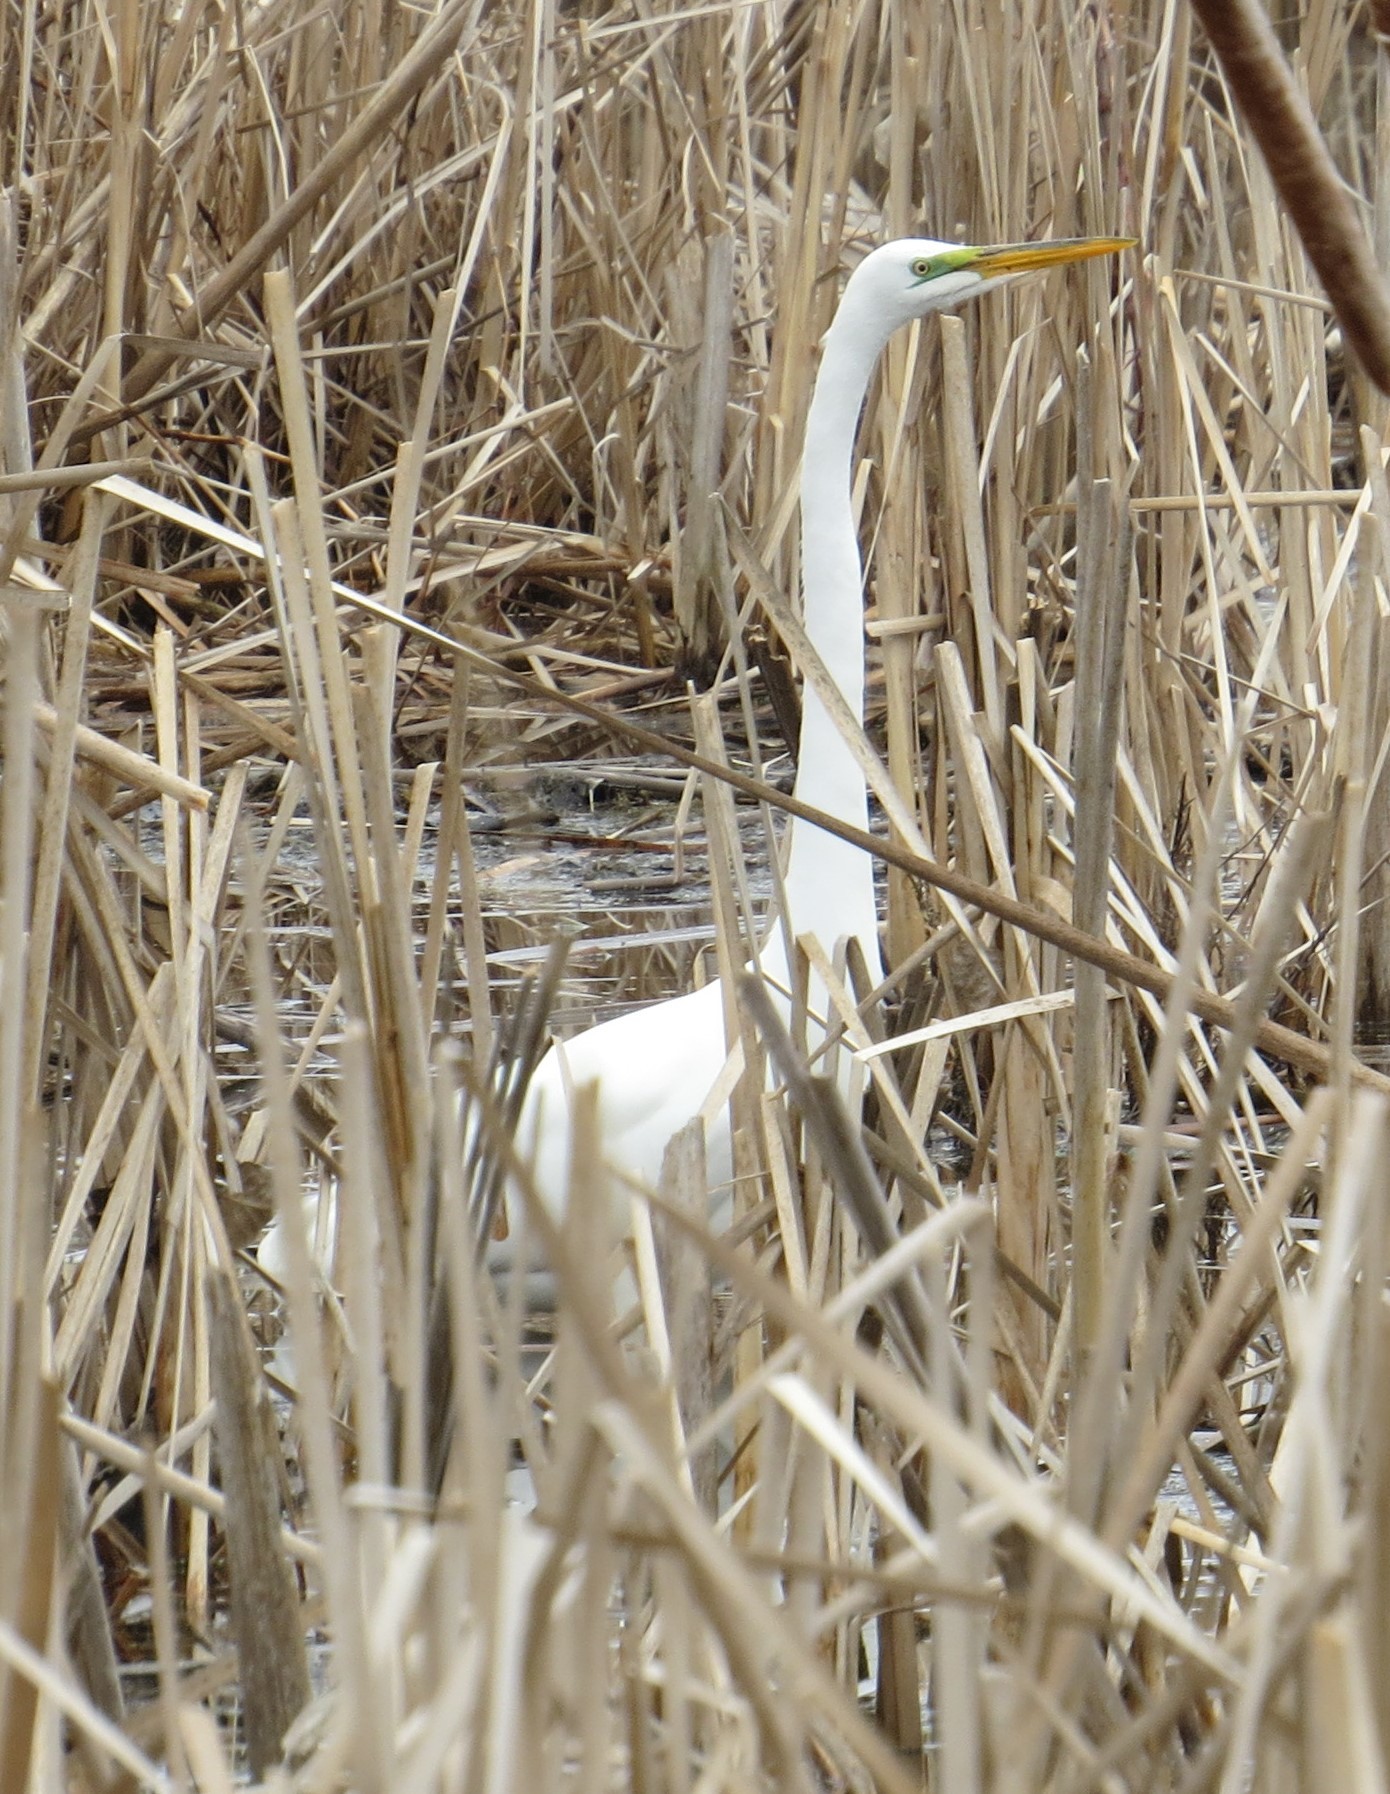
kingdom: Animalia
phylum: Chordata
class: Aves
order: Pelecaniformes
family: Ardeidae
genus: Ardea
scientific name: Ardea alba
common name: Great egret
